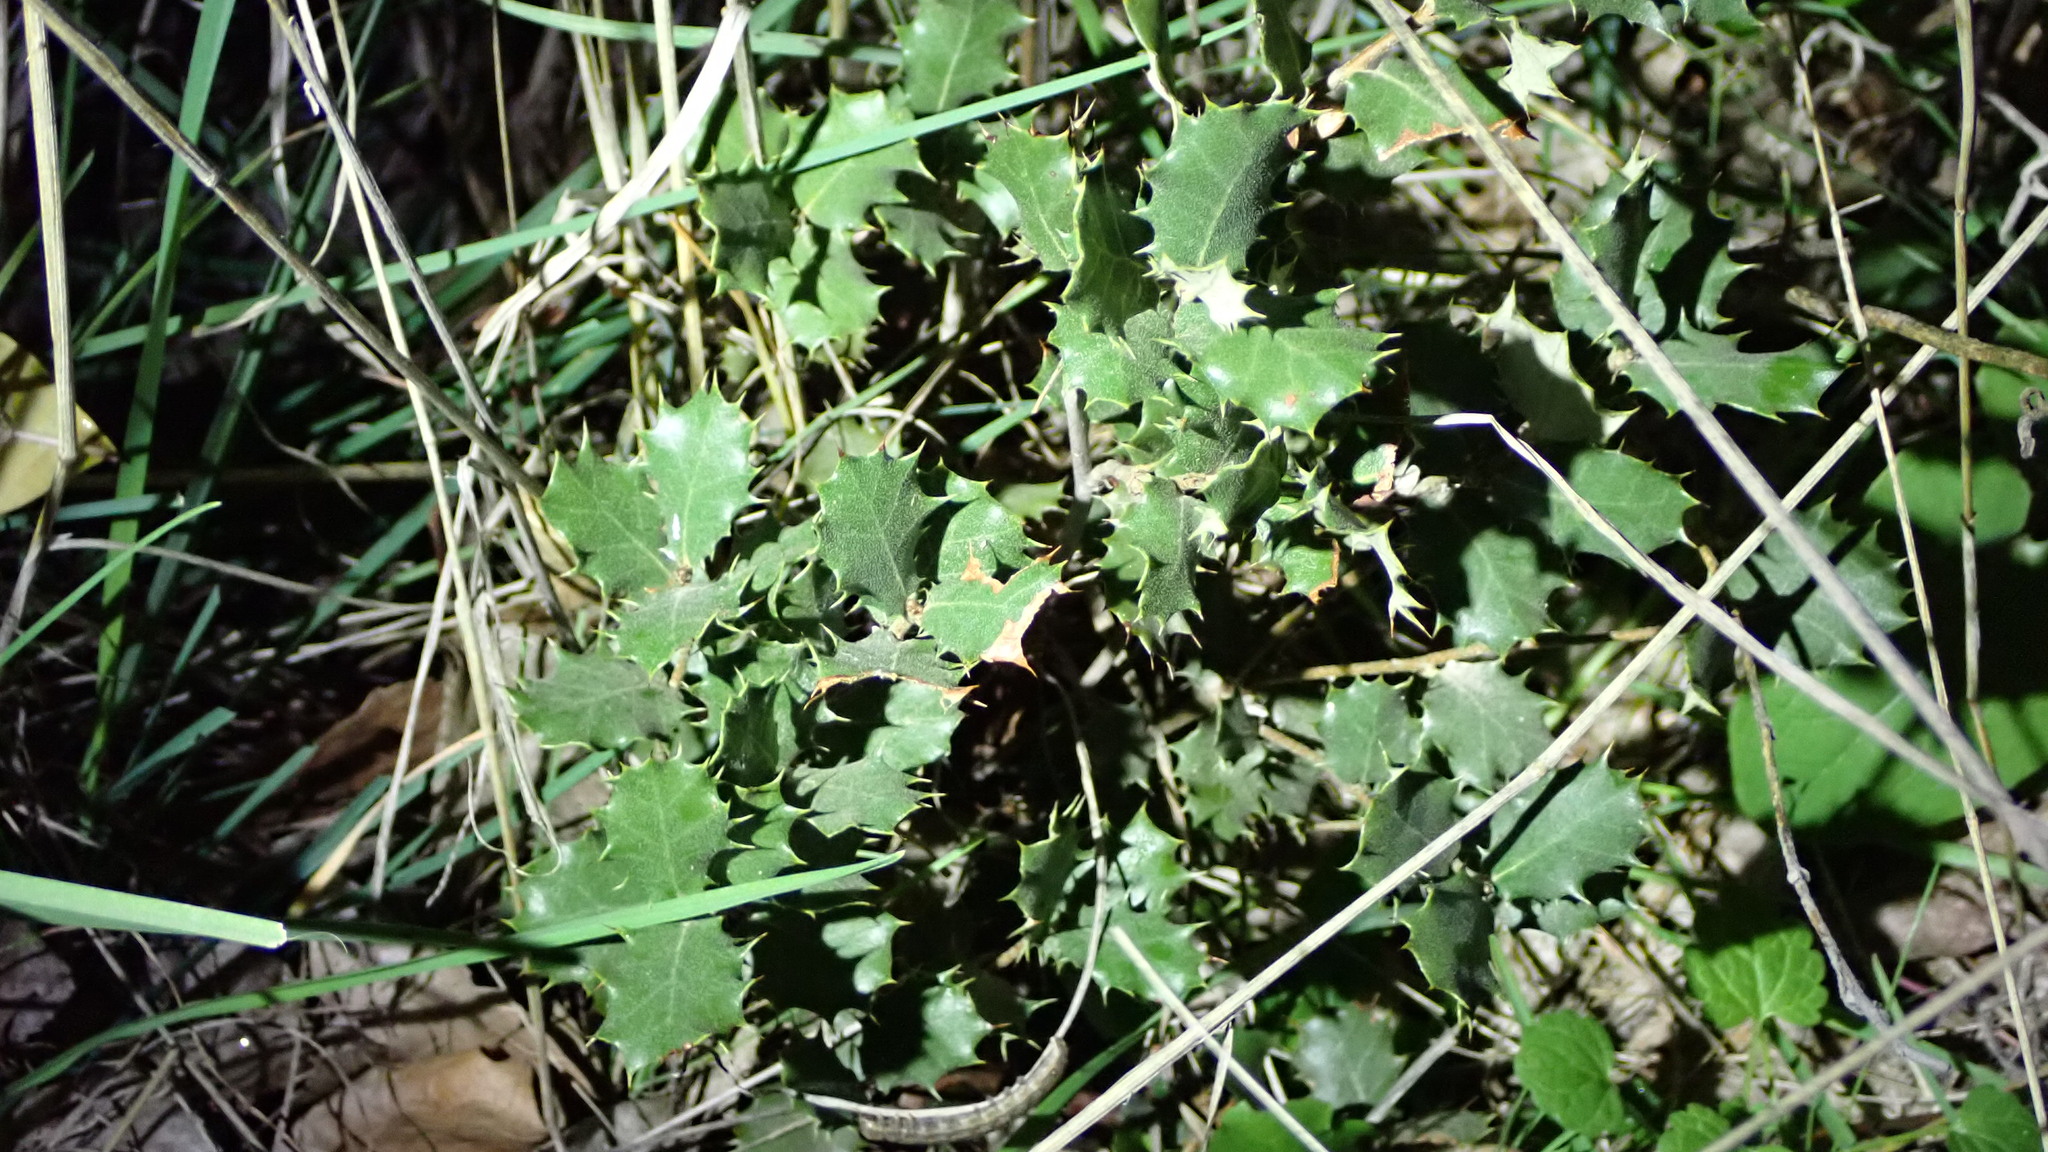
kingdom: Plantae
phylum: Tracheophyta
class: Magnoliopsida
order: Fagales
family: Fagaceae
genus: Quercus
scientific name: Quercus rotundifolia
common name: Holm oak
